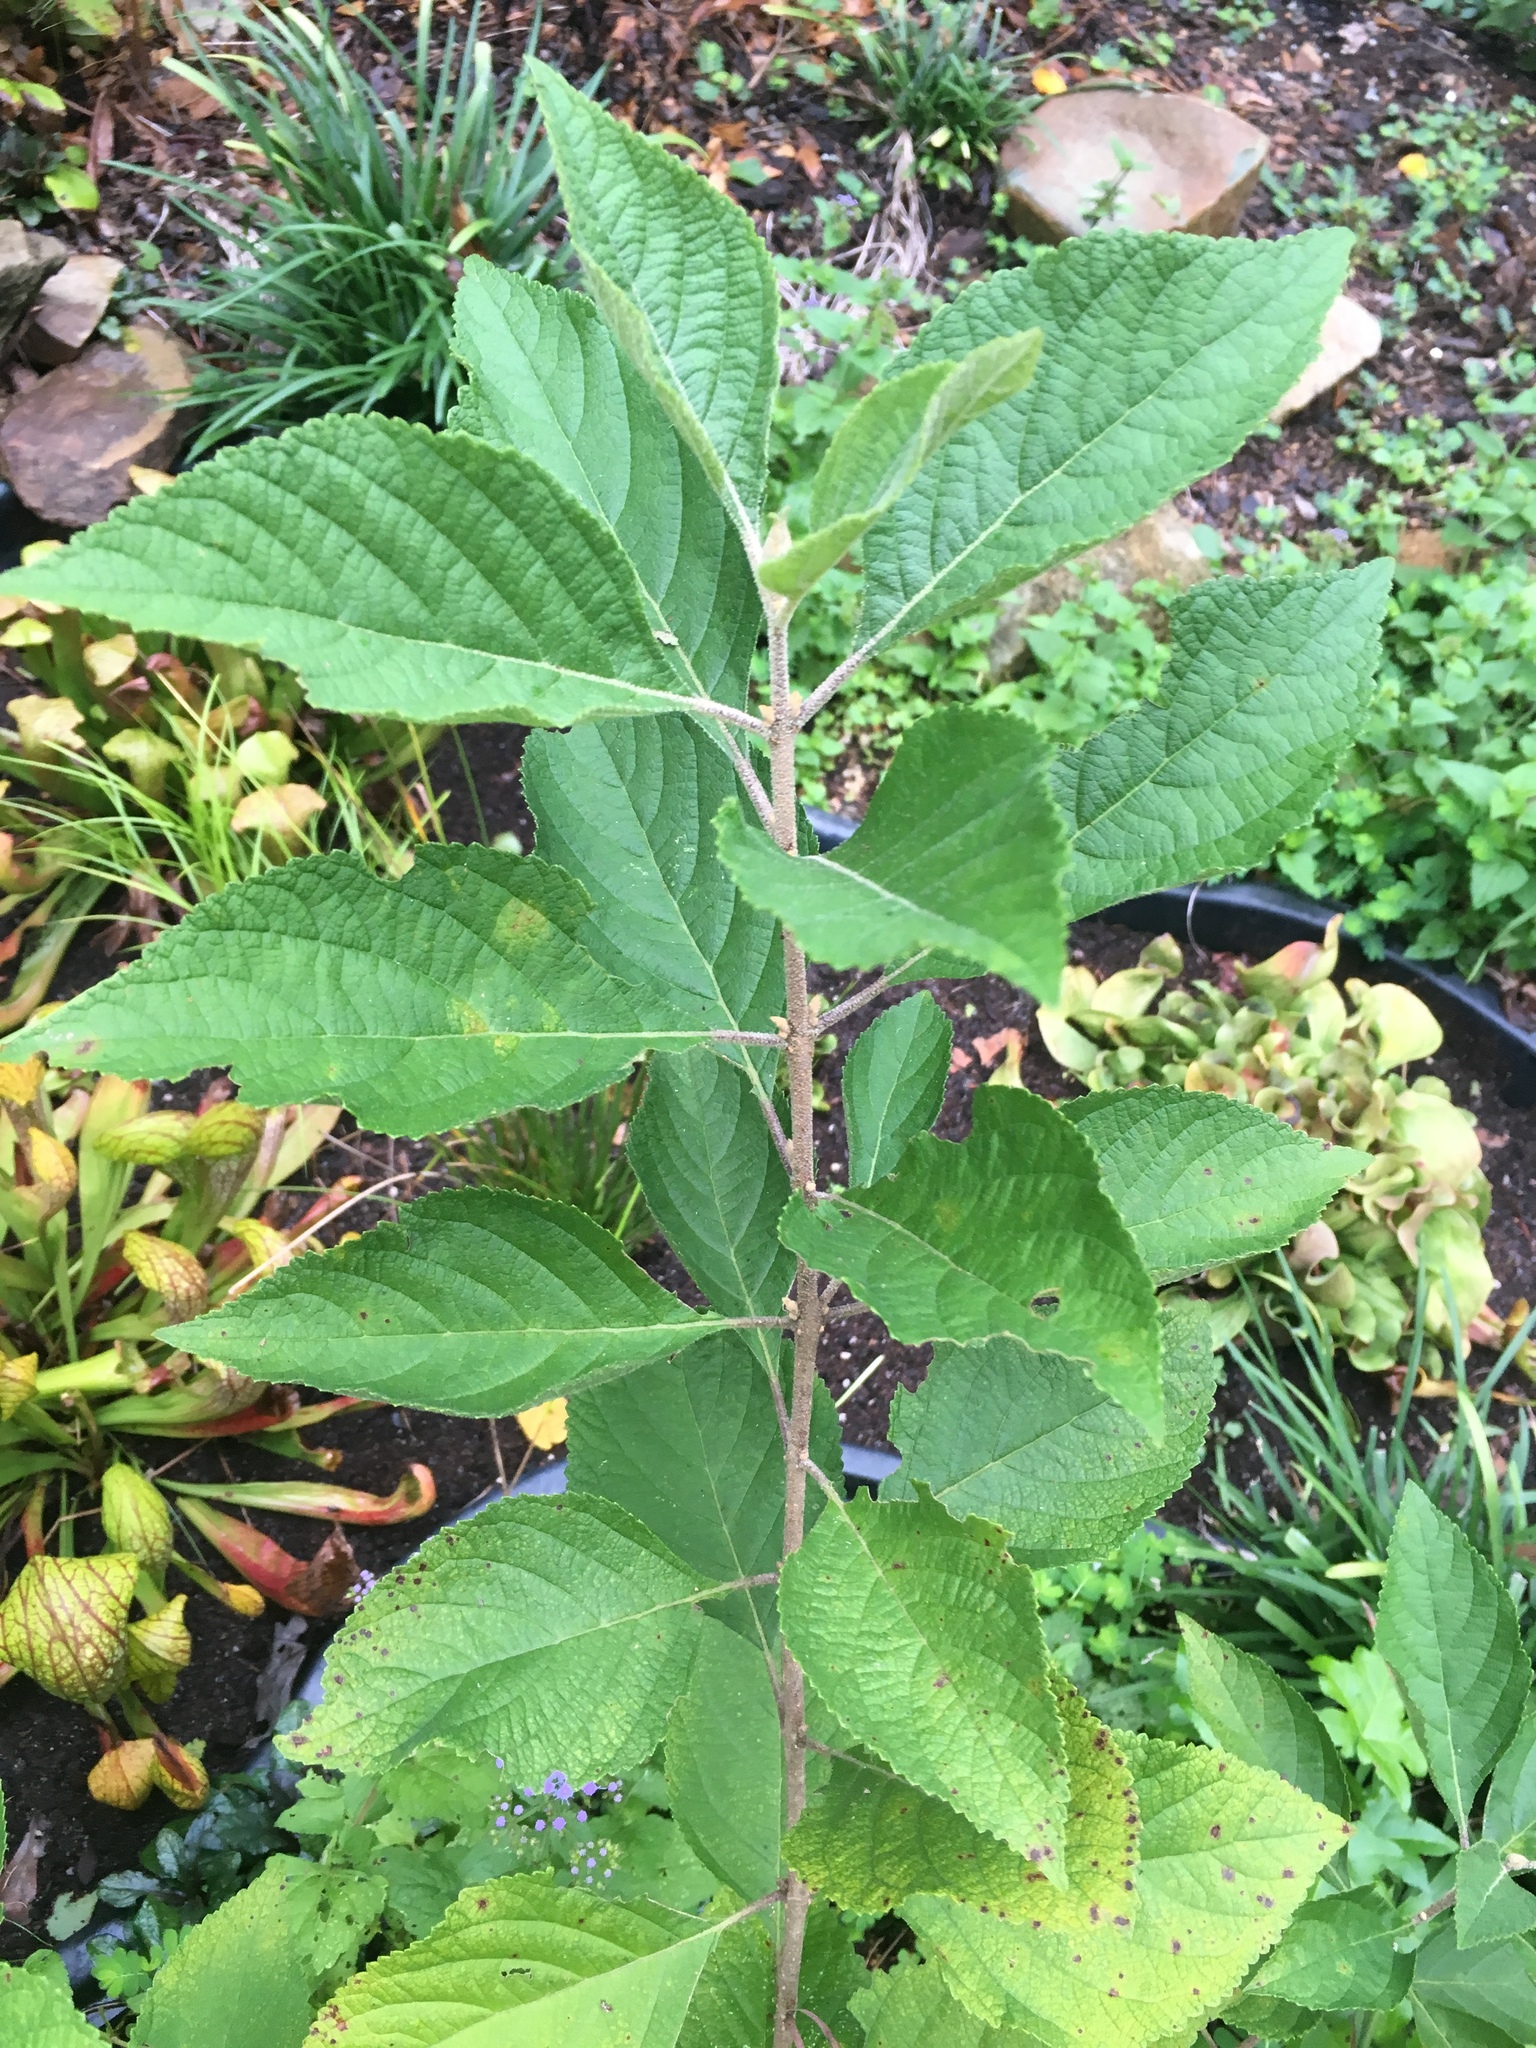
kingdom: Plantae
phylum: Tracheophyta
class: Magnoliopsida
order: Lamiales
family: Lamiaceae
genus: Callicarpa
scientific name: Callicarpa americana
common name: American beautyberry
